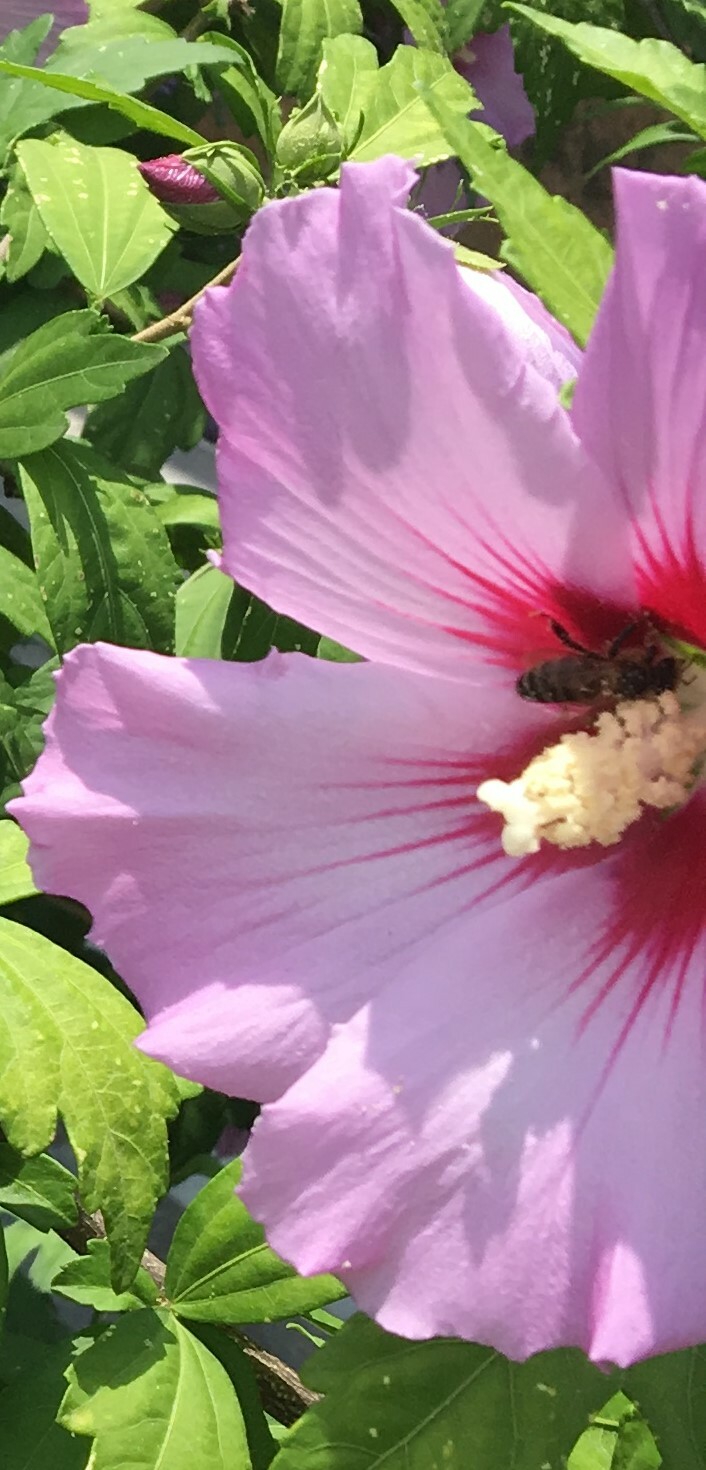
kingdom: Animalia
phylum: Arthropoda
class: Insecta
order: Hymenoptera
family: Apidae
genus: Apis
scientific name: Apis mellifera
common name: Honey bee
